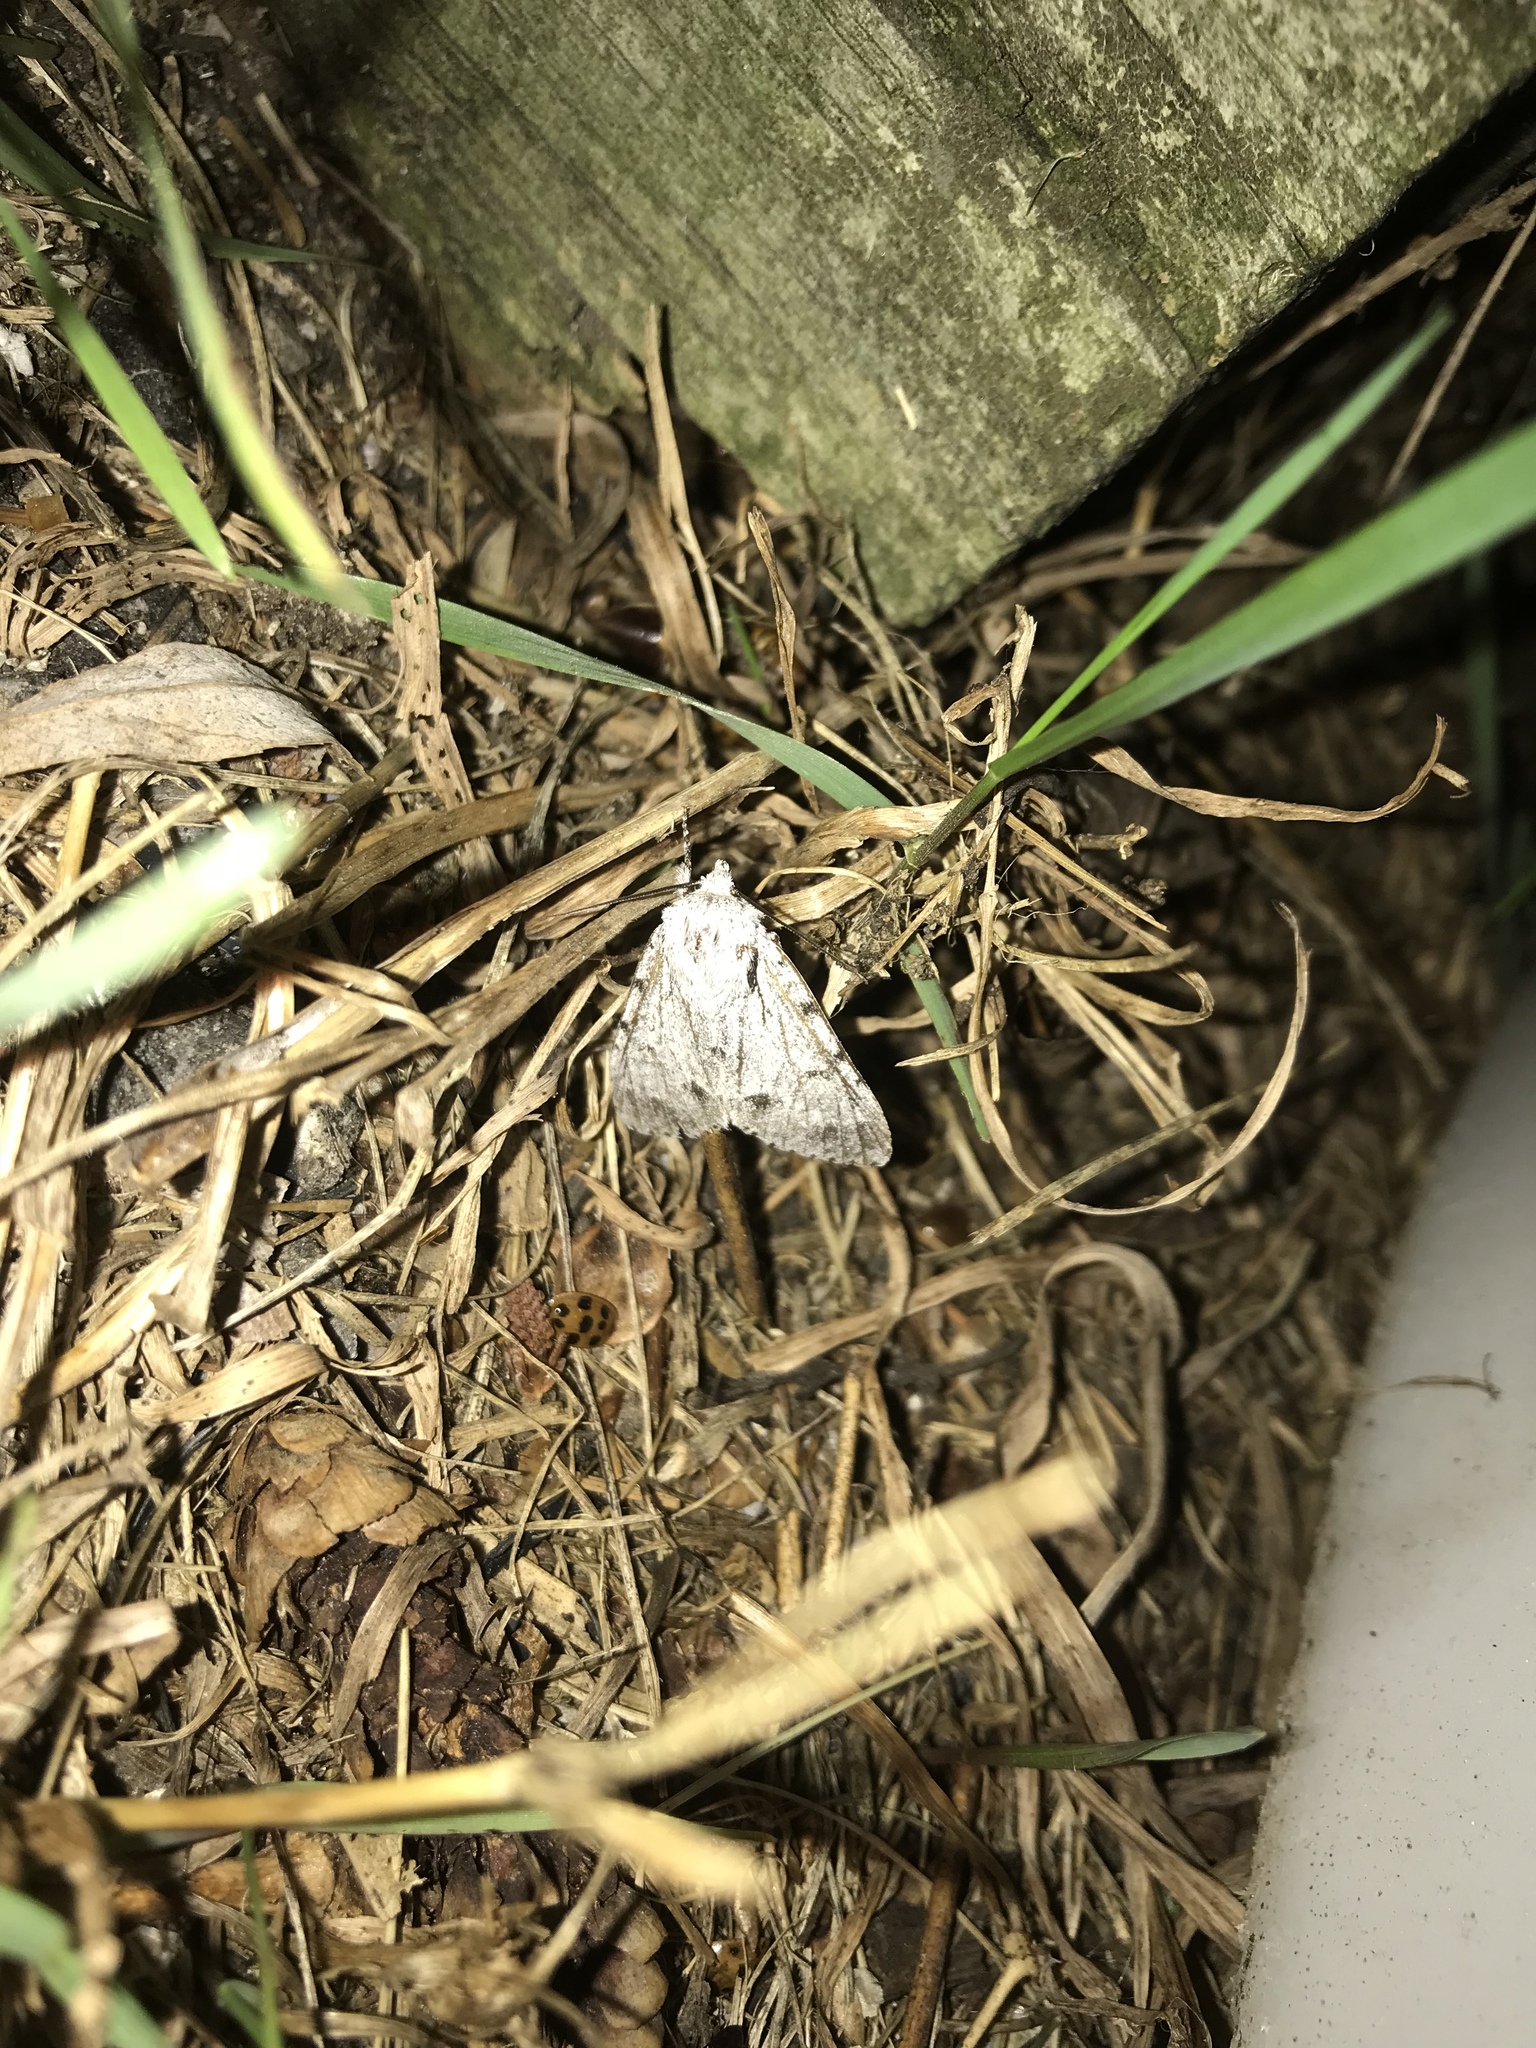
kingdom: Animalia
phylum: Arthropoda
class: Insecta
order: Lepidoptera
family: Noctuidae
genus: Acronicta
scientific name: Acronicta lepusculina
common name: Cottonwood dagger
